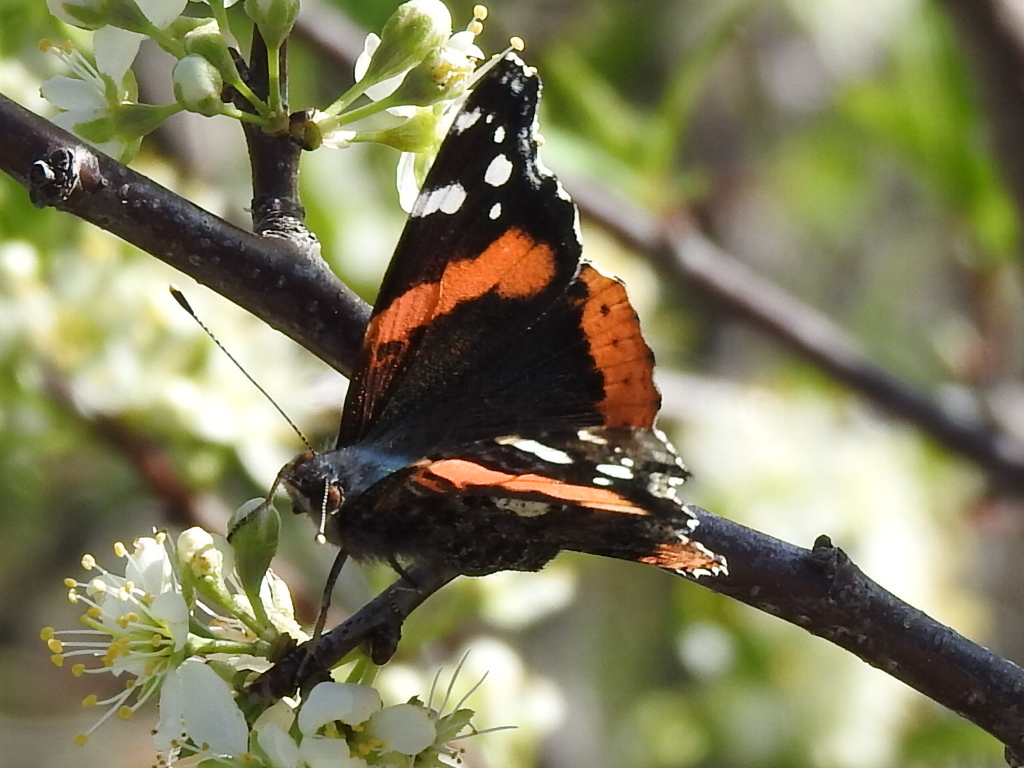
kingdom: Animalia
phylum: Arthropoda
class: Insecta
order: Lepidoptera
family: Nymphalidae
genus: Vanessa
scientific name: Vanessa atalanta
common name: Red admiral
